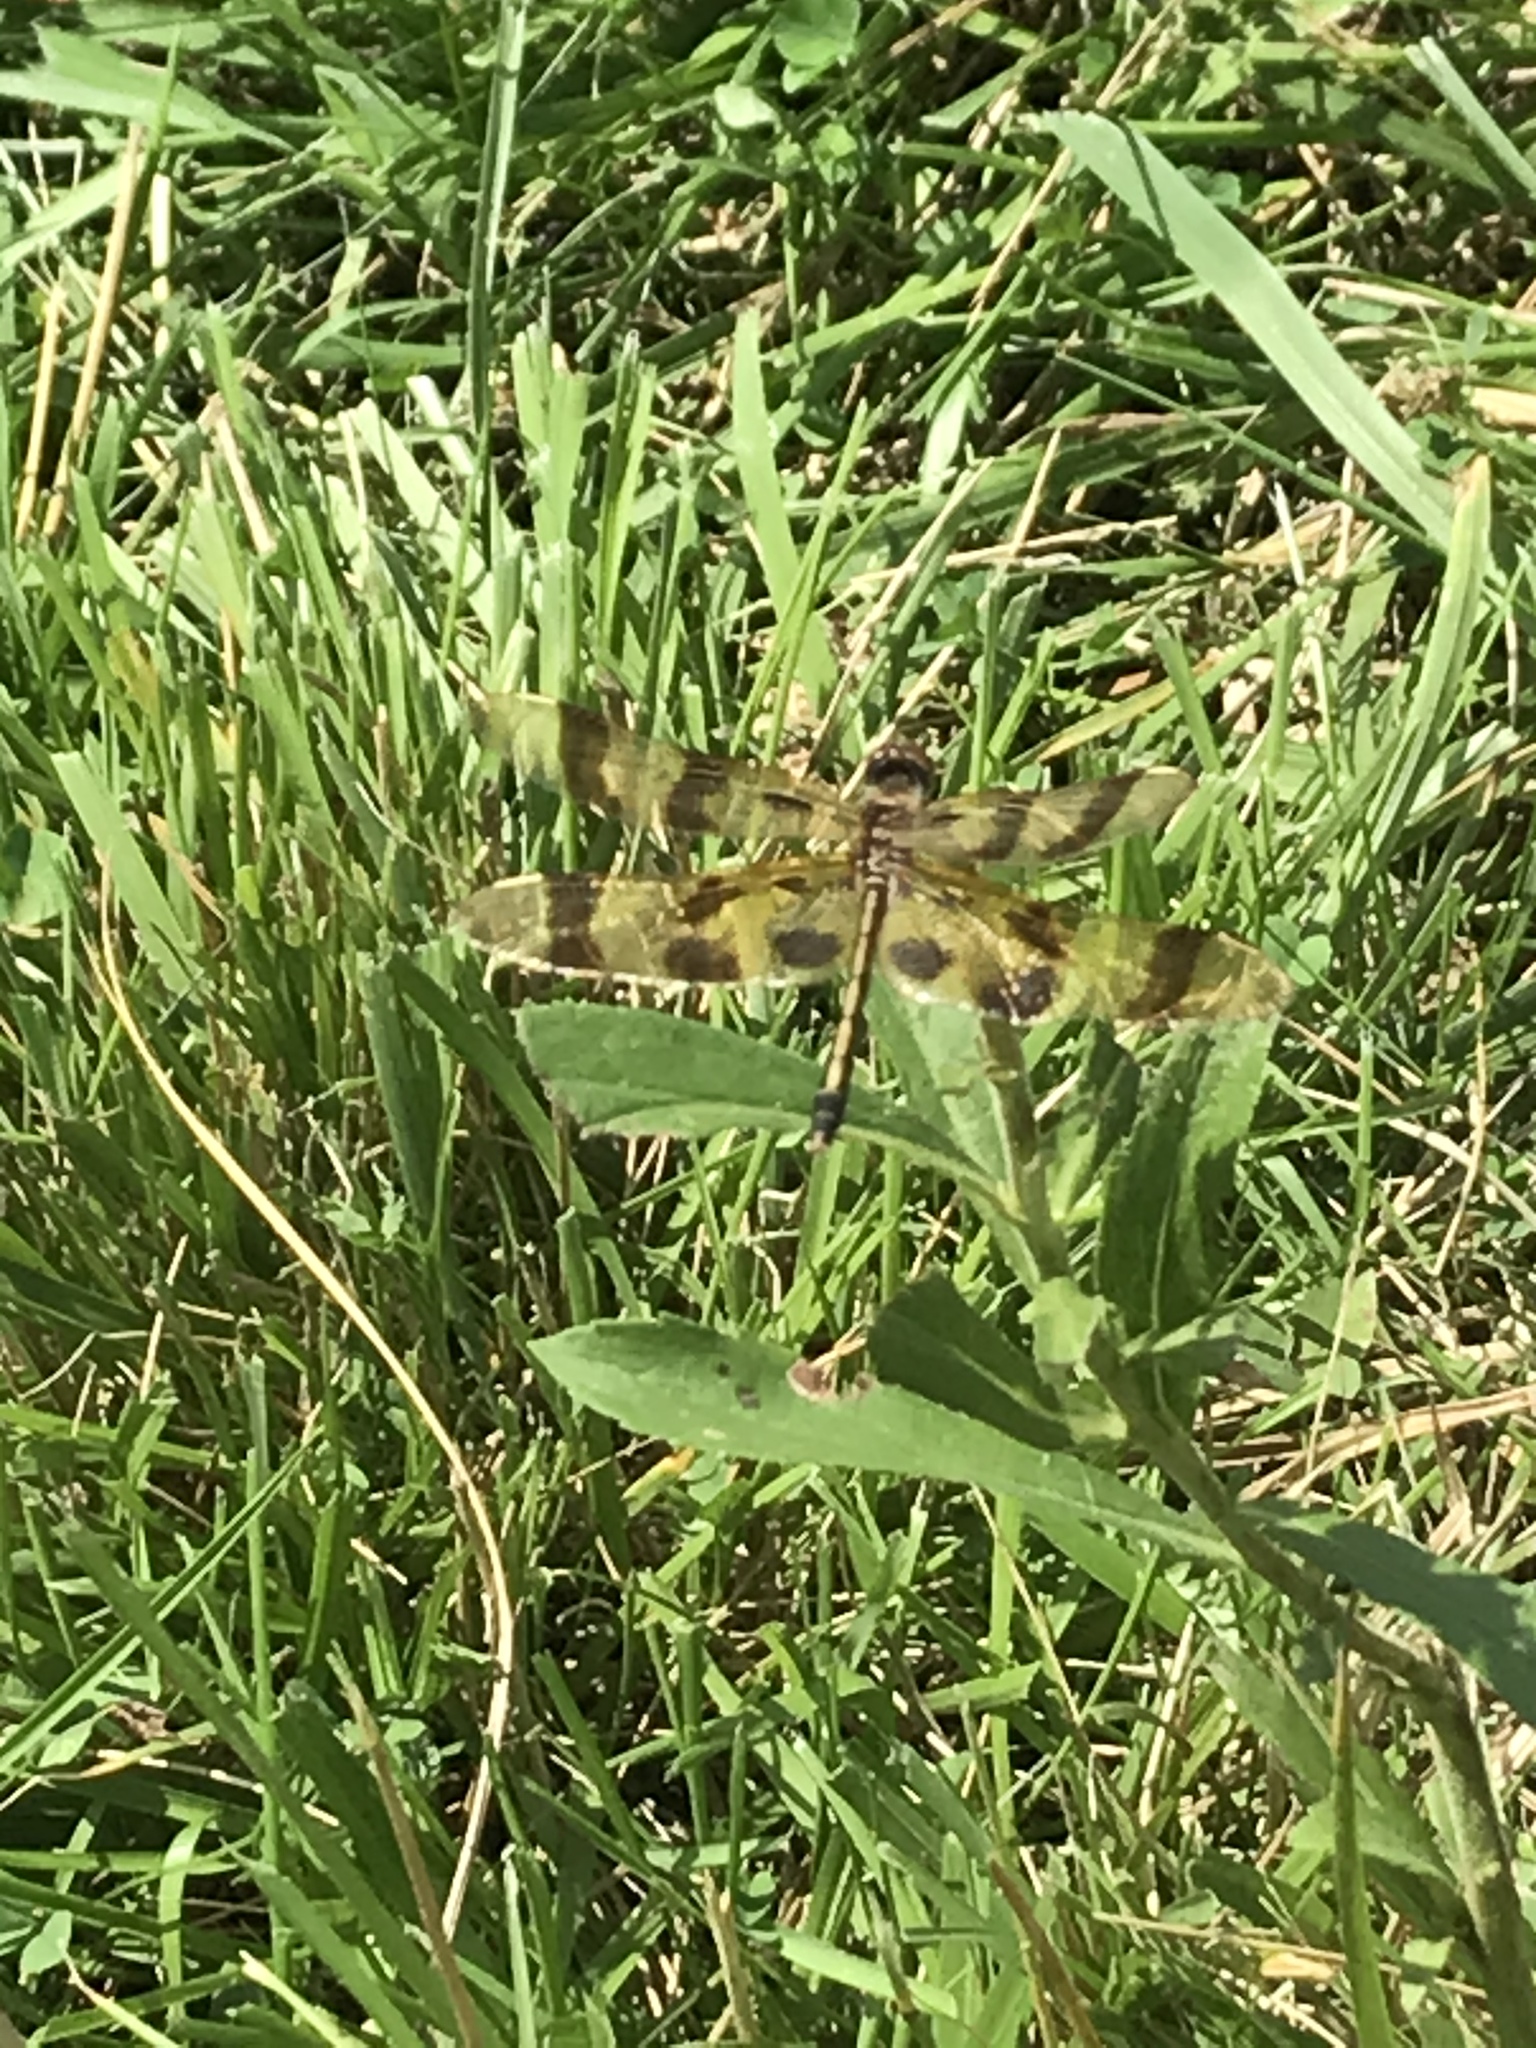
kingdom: Animalia
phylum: Arthropoda
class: Insecta
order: Odonata
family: Libellulidae
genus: Celithemis
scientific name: Celithemis eponina
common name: Halloween pennant
